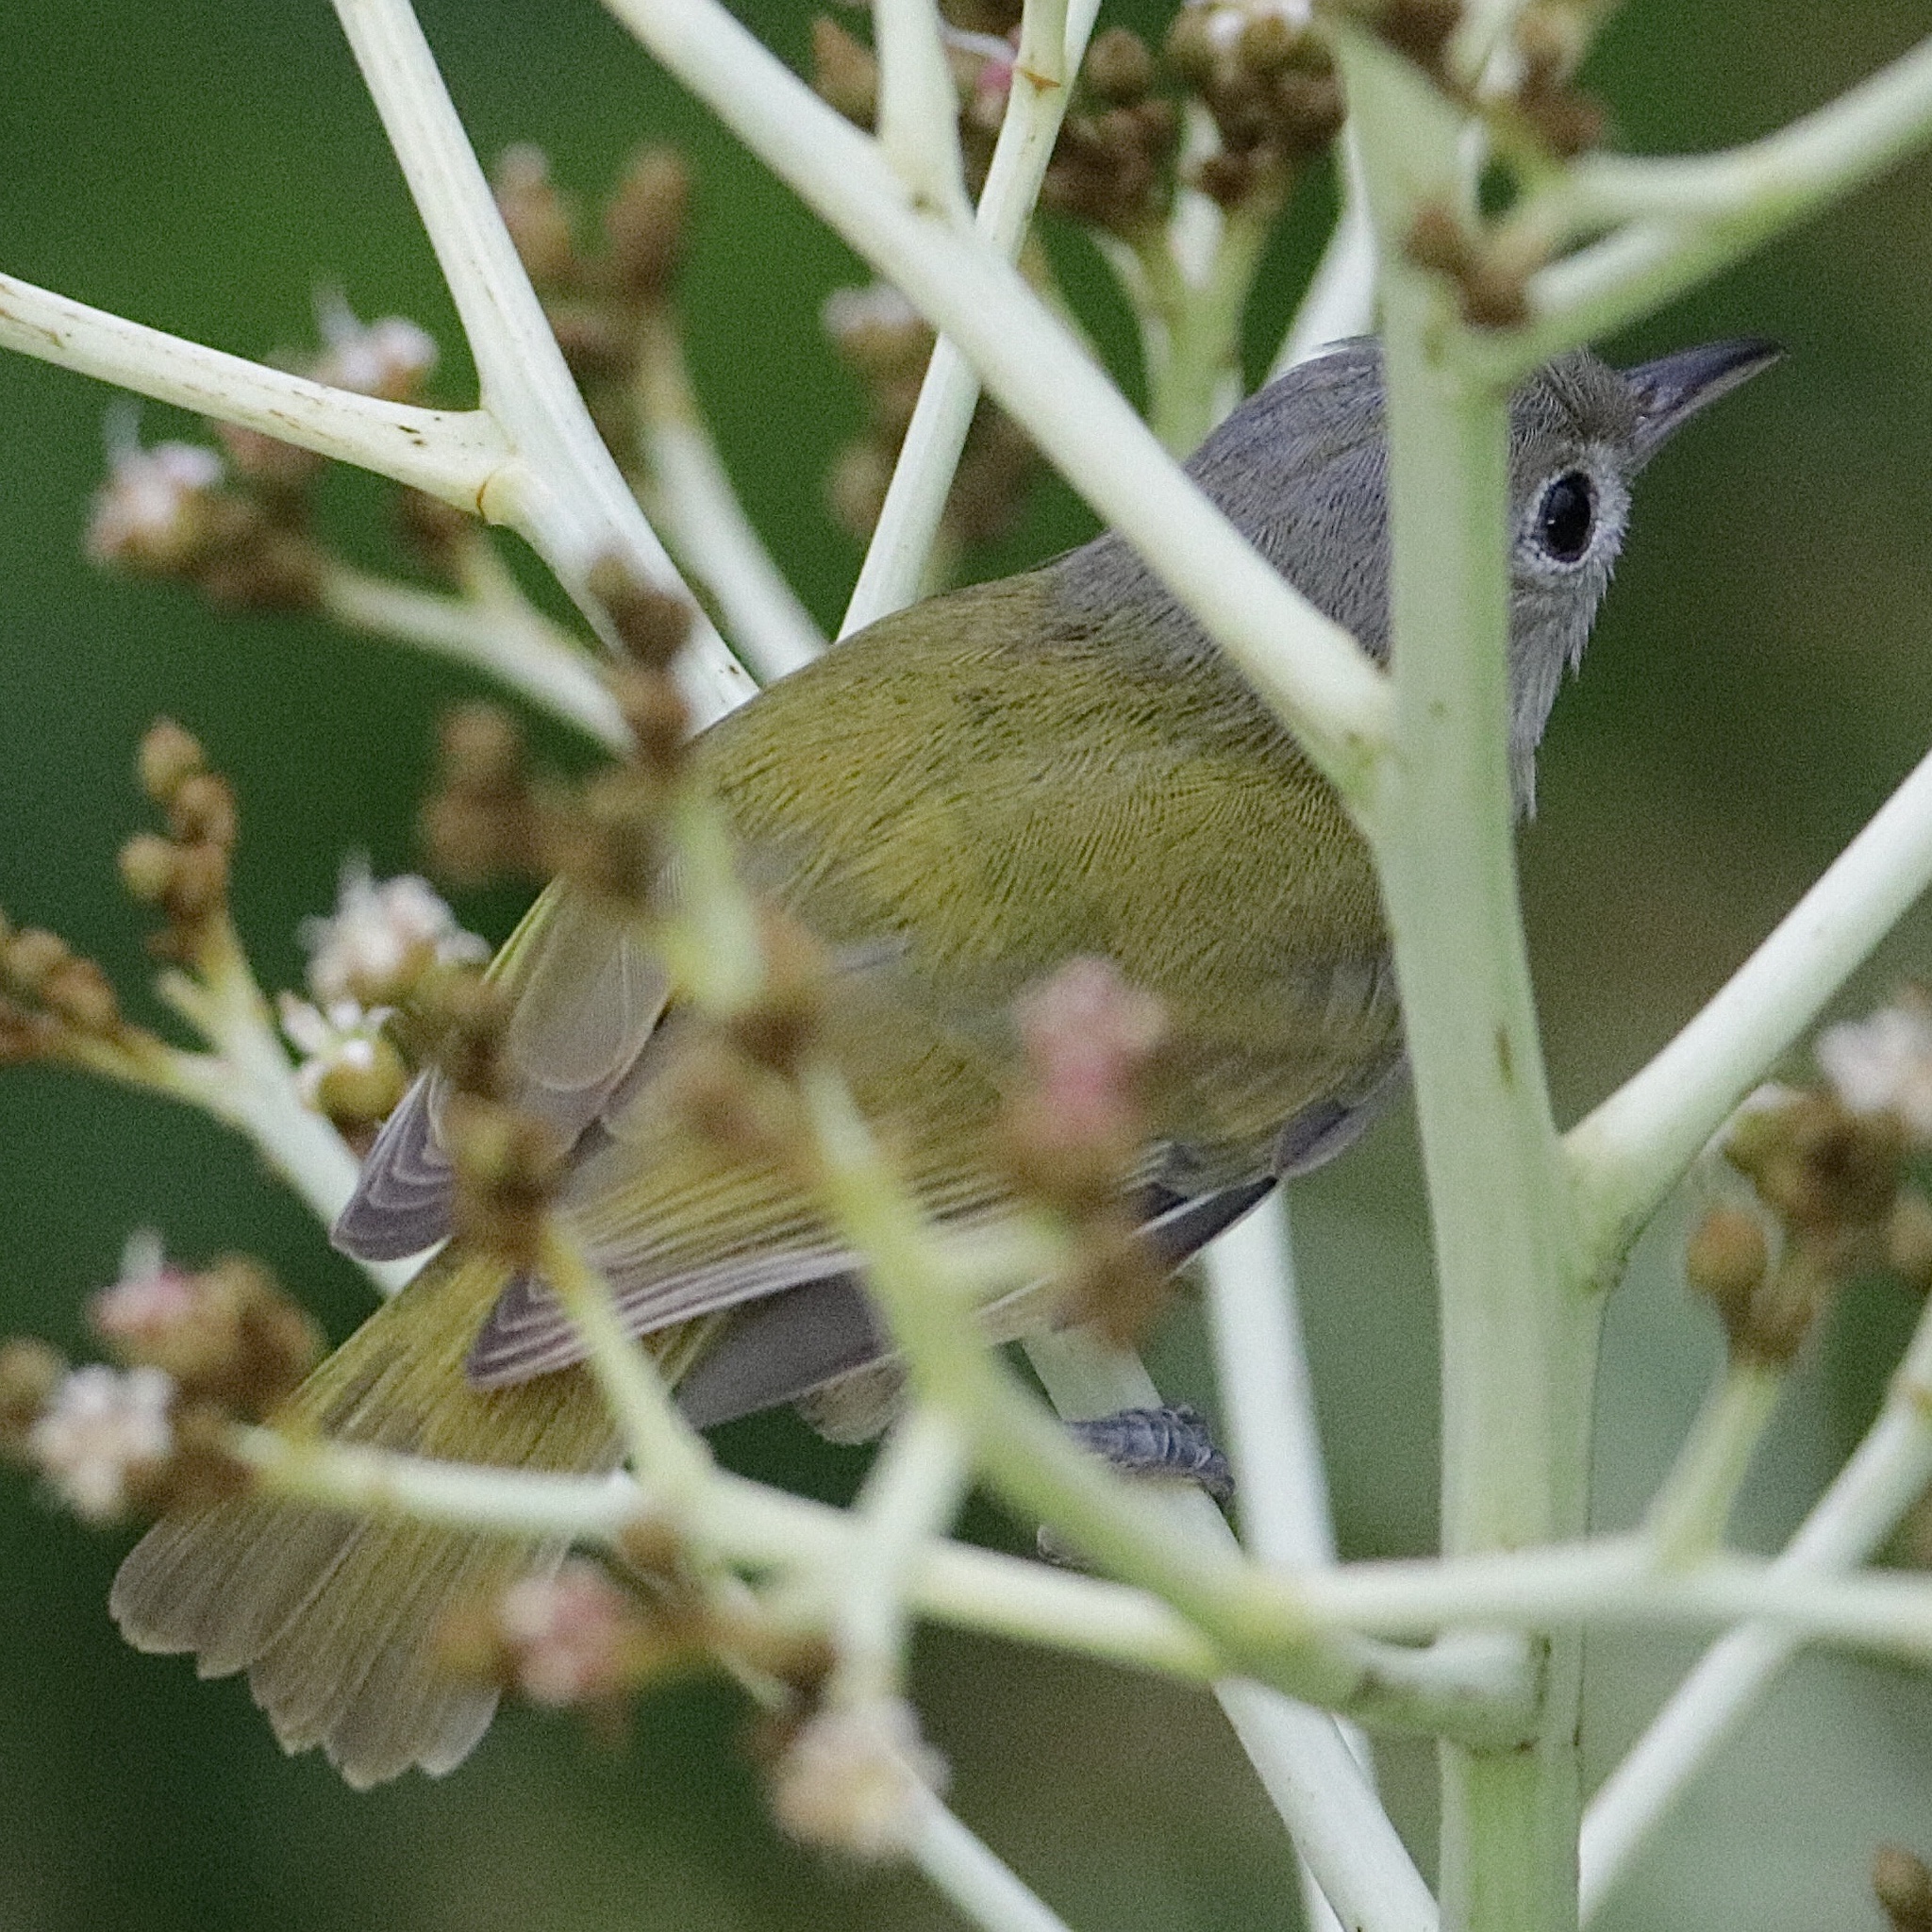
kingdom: Animalia
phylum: Chordata
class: Aves
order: Passeriformes
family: Vireonidae
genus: Hylophilus
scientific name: Hylophilus decurtatus
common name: Lesser greenlet
